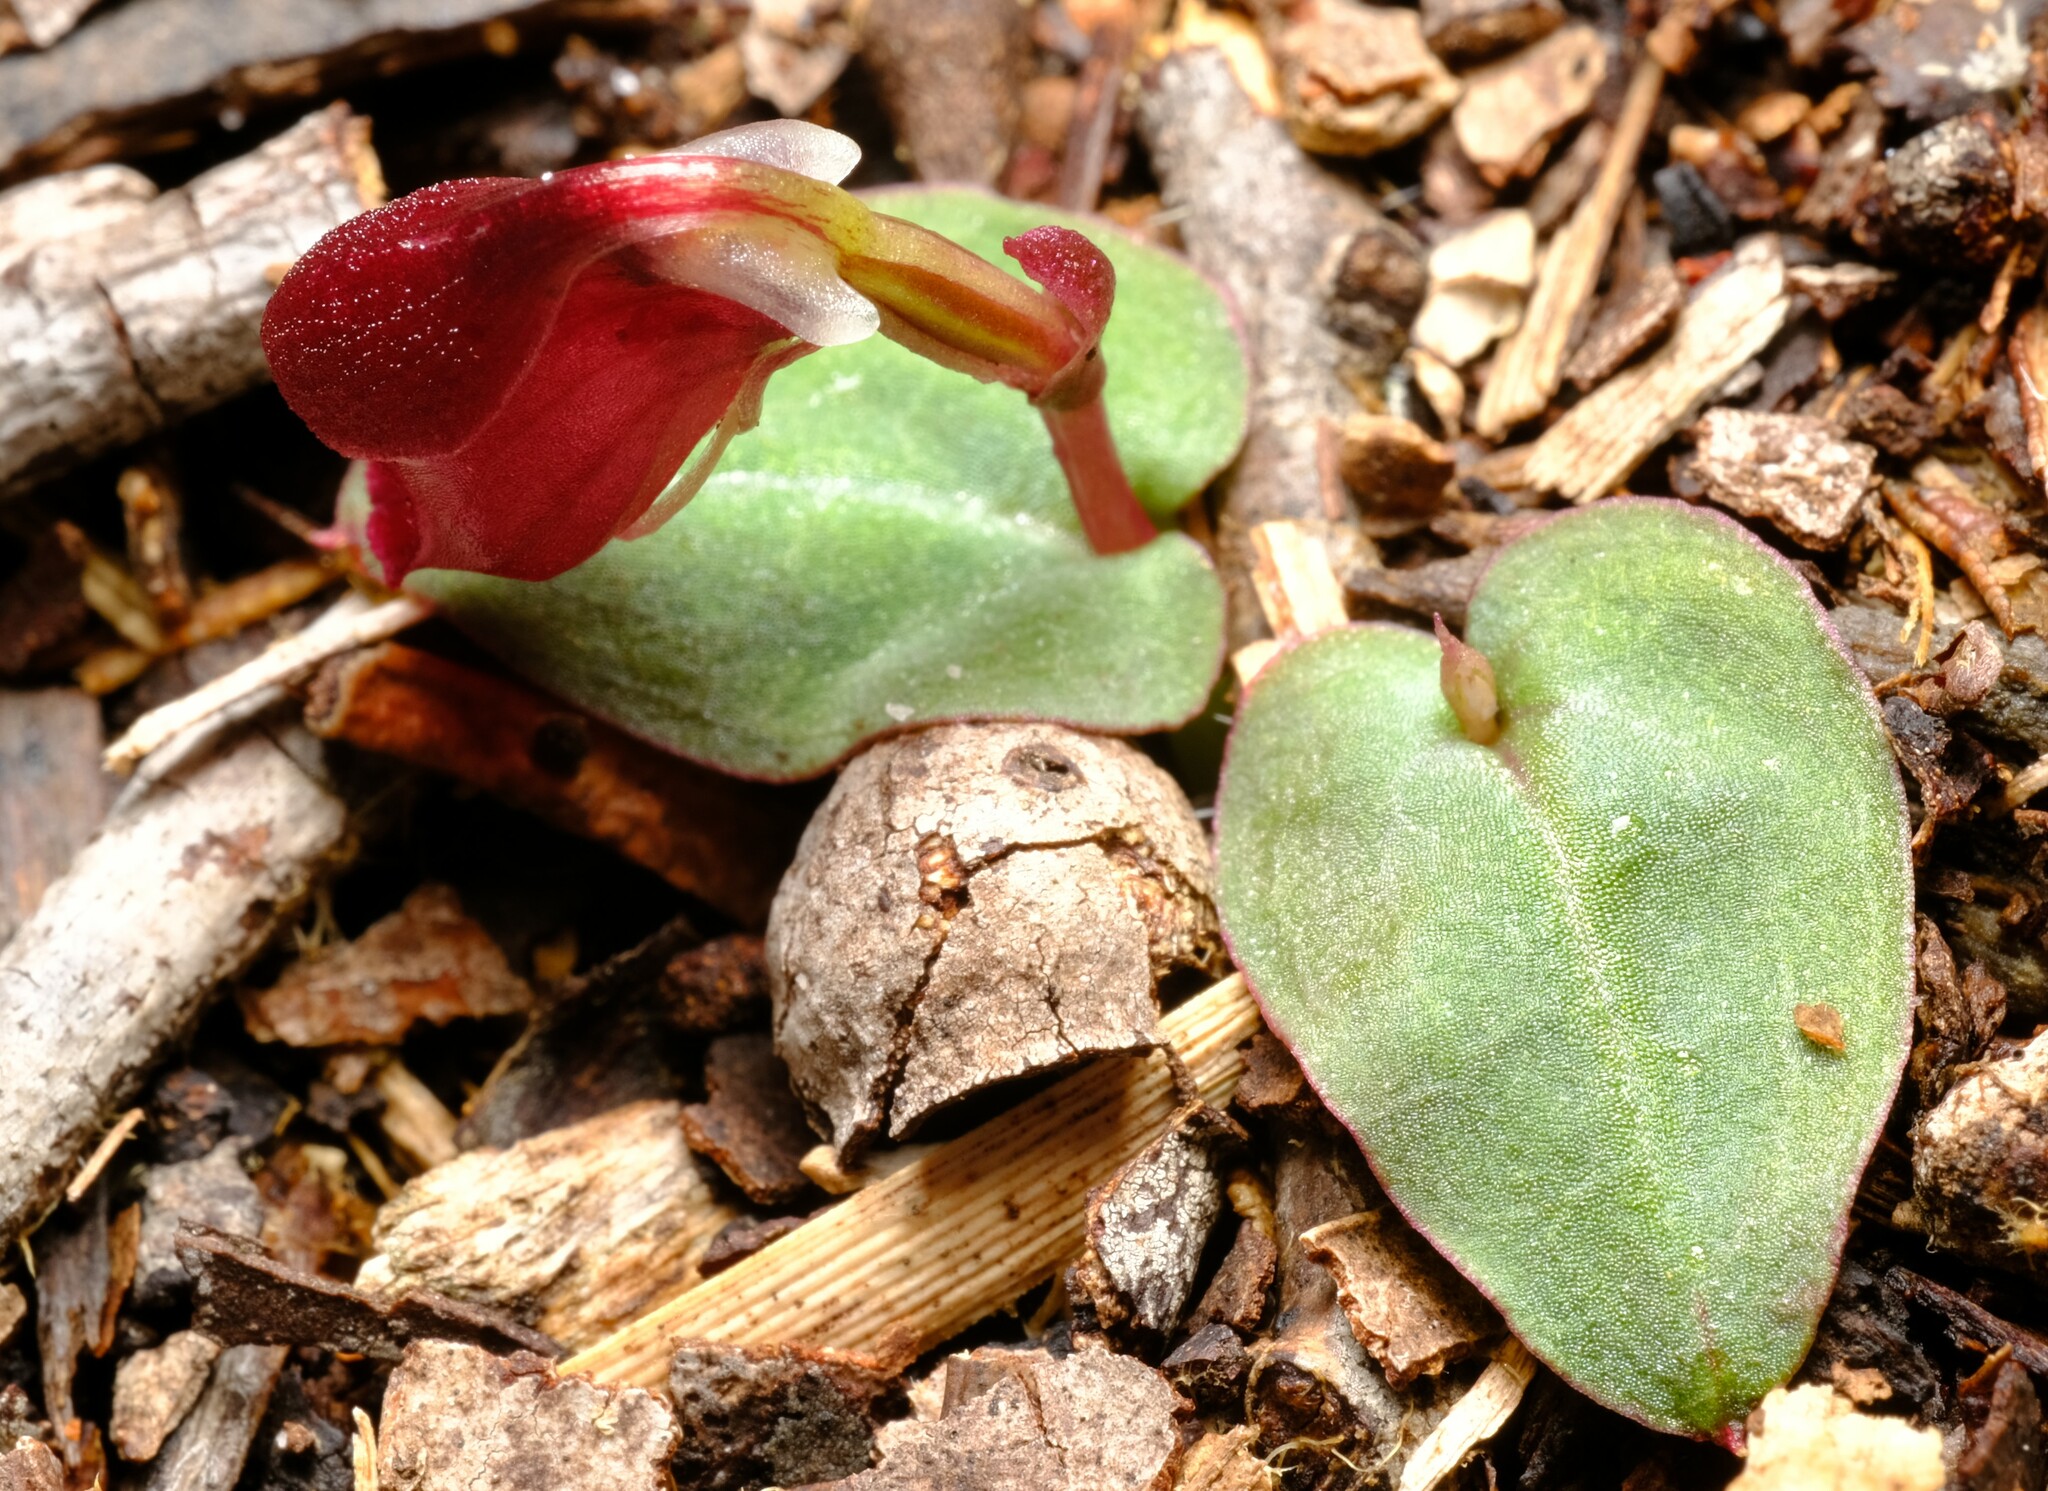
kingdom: Plantae
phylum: Tracheophyta
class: Liliopsida
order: Asparagales
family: Orchidaceae
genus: Corybas
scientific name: Corybas unguiculatus
